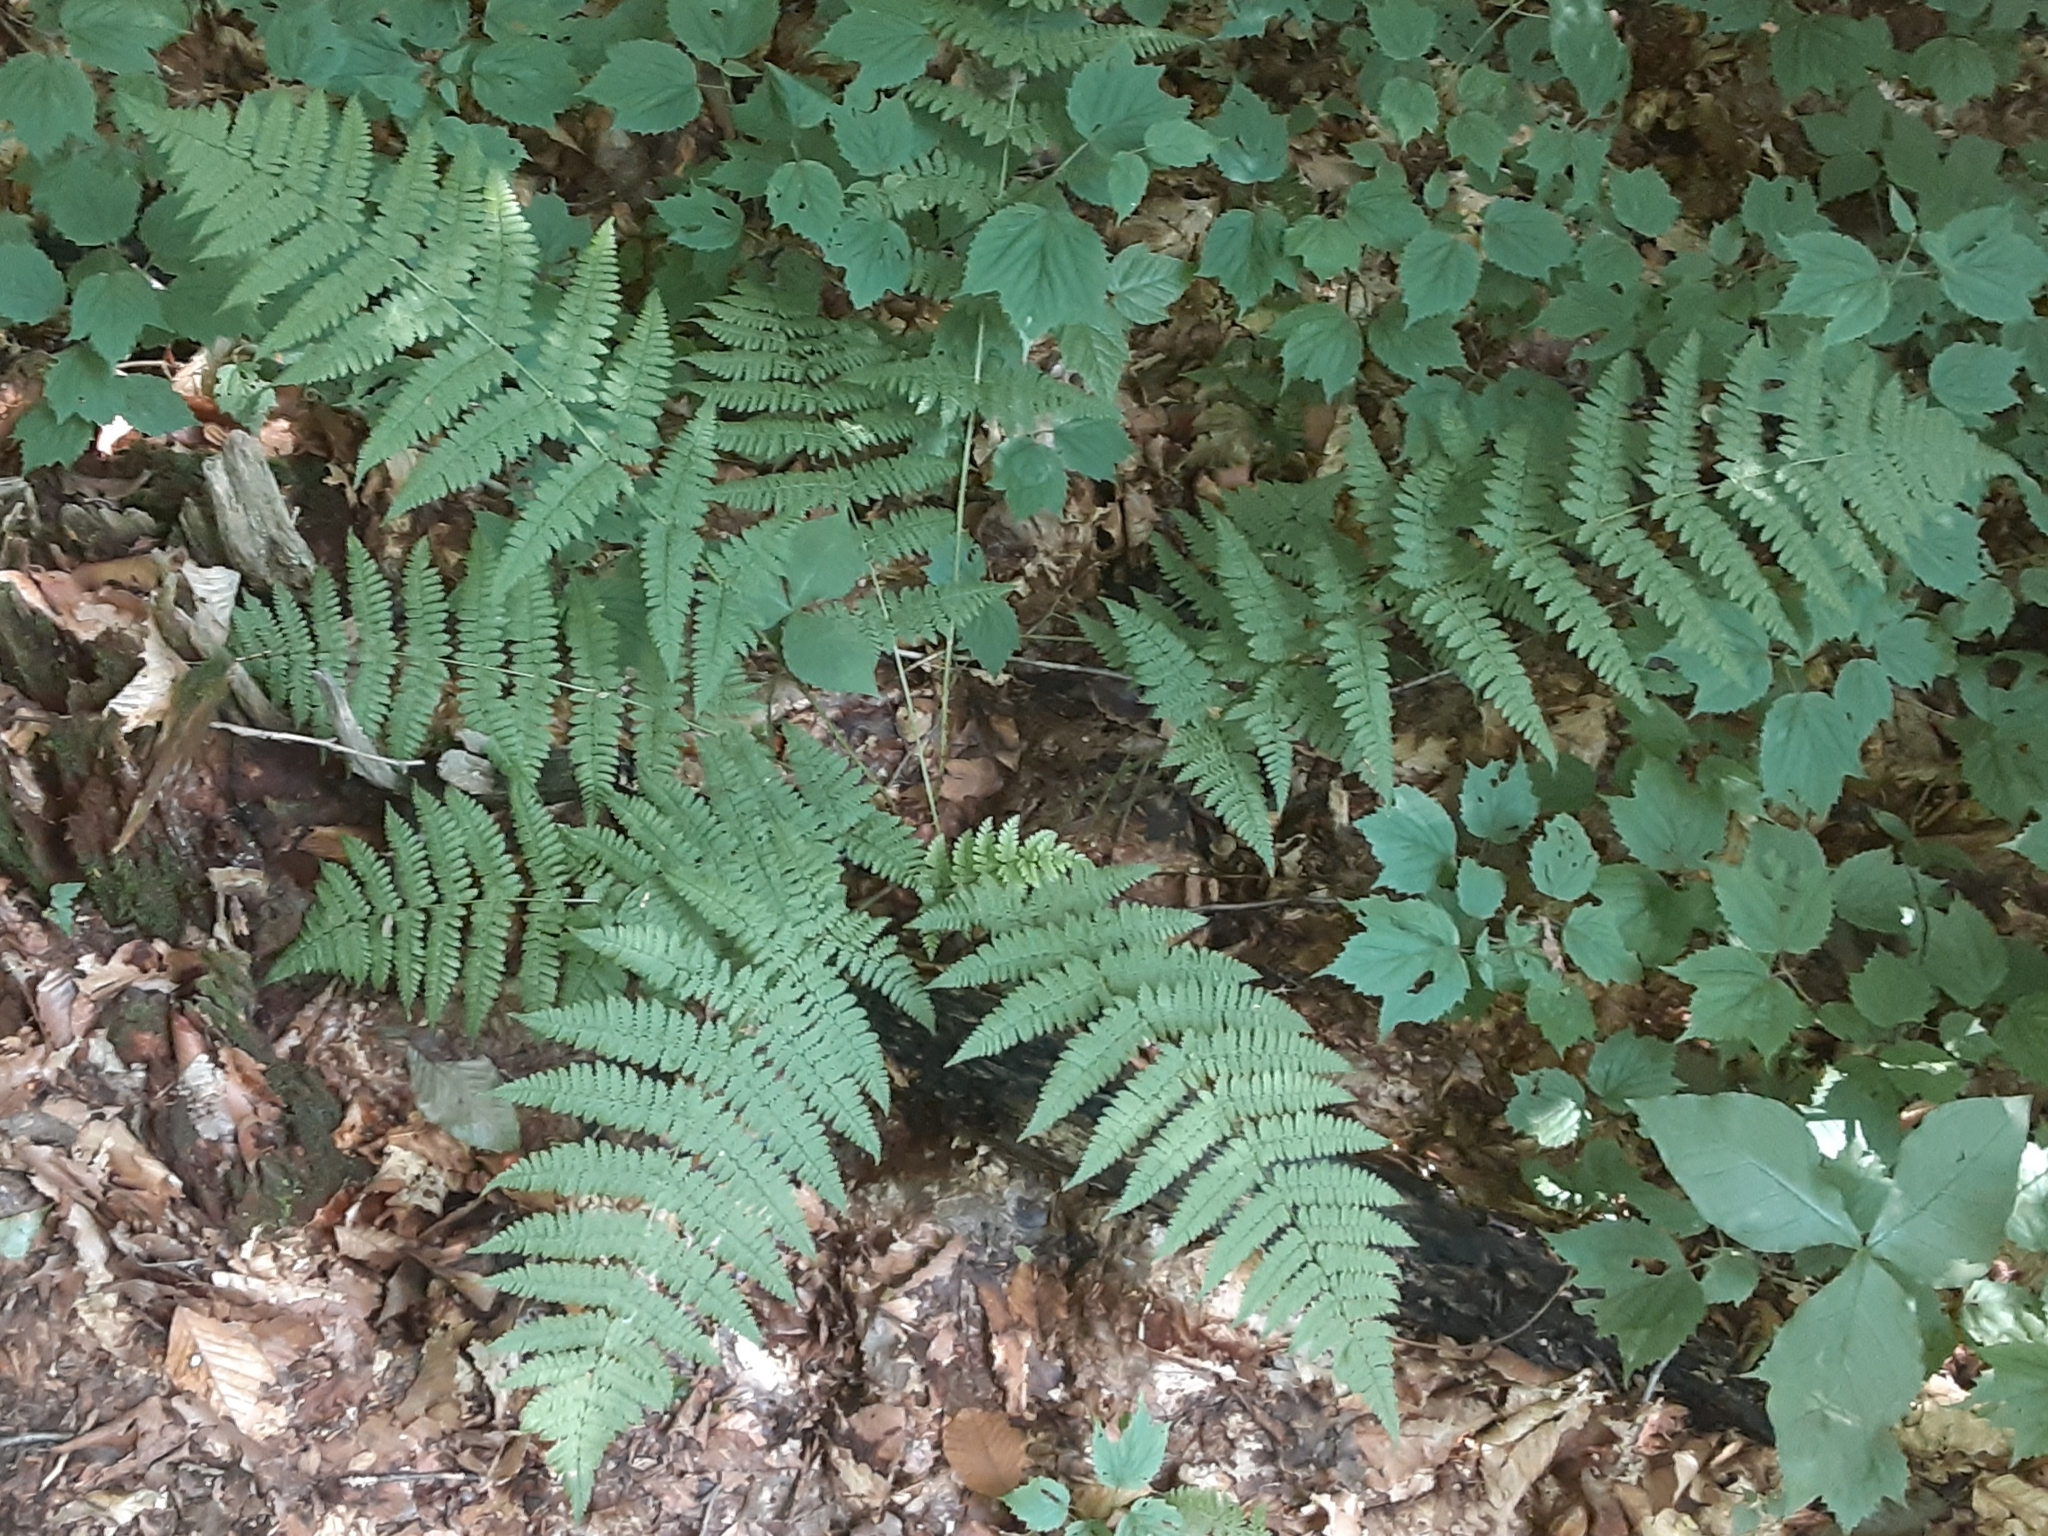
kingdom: Plantae
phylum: Tracheophyta
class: Polypodiopsida
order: Polypodiales
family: Dryopteridaceae
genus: Dryopteris
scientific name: Dryopteris intermedia
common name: Evergreen wood fern
